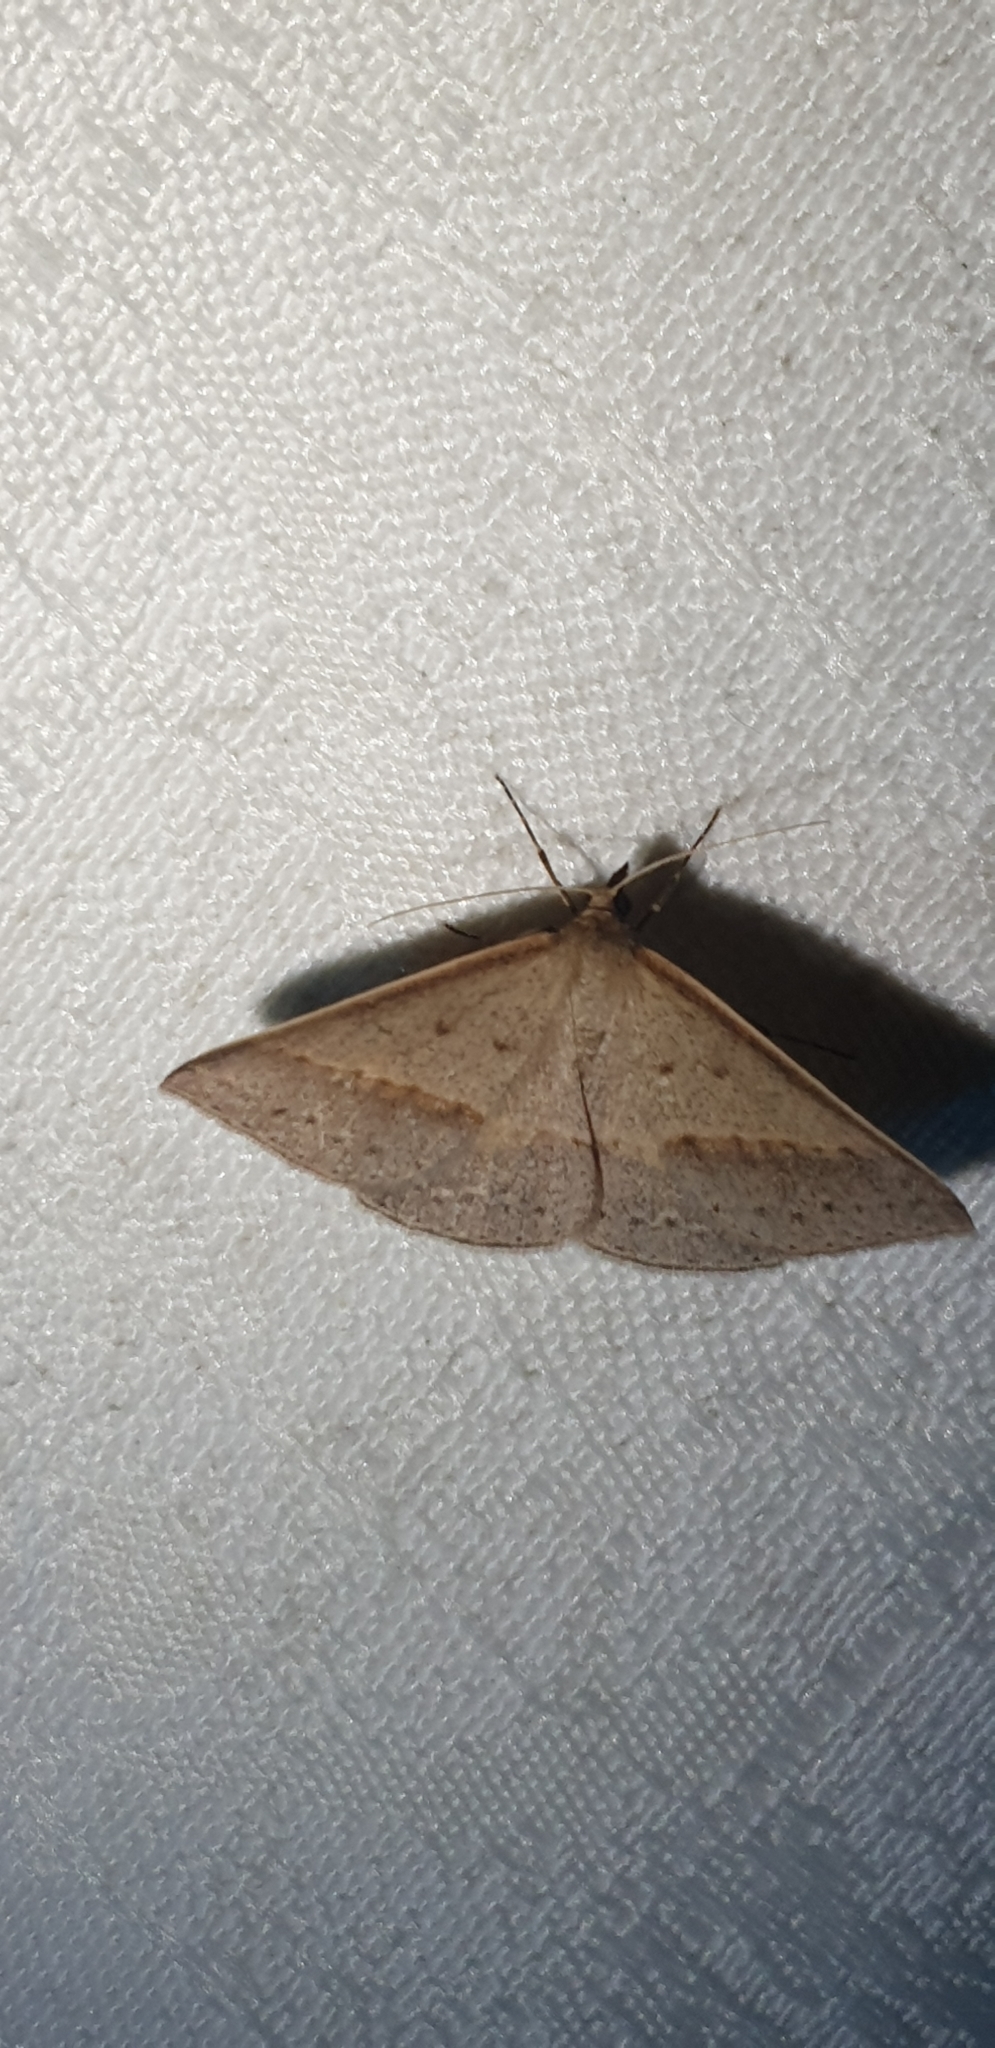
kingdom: Animalia
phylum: Arthropoda
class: Insecta
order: Lepidoptera
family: Geometridae
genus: Epidesmia
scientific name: Epidesmia tryxaria
